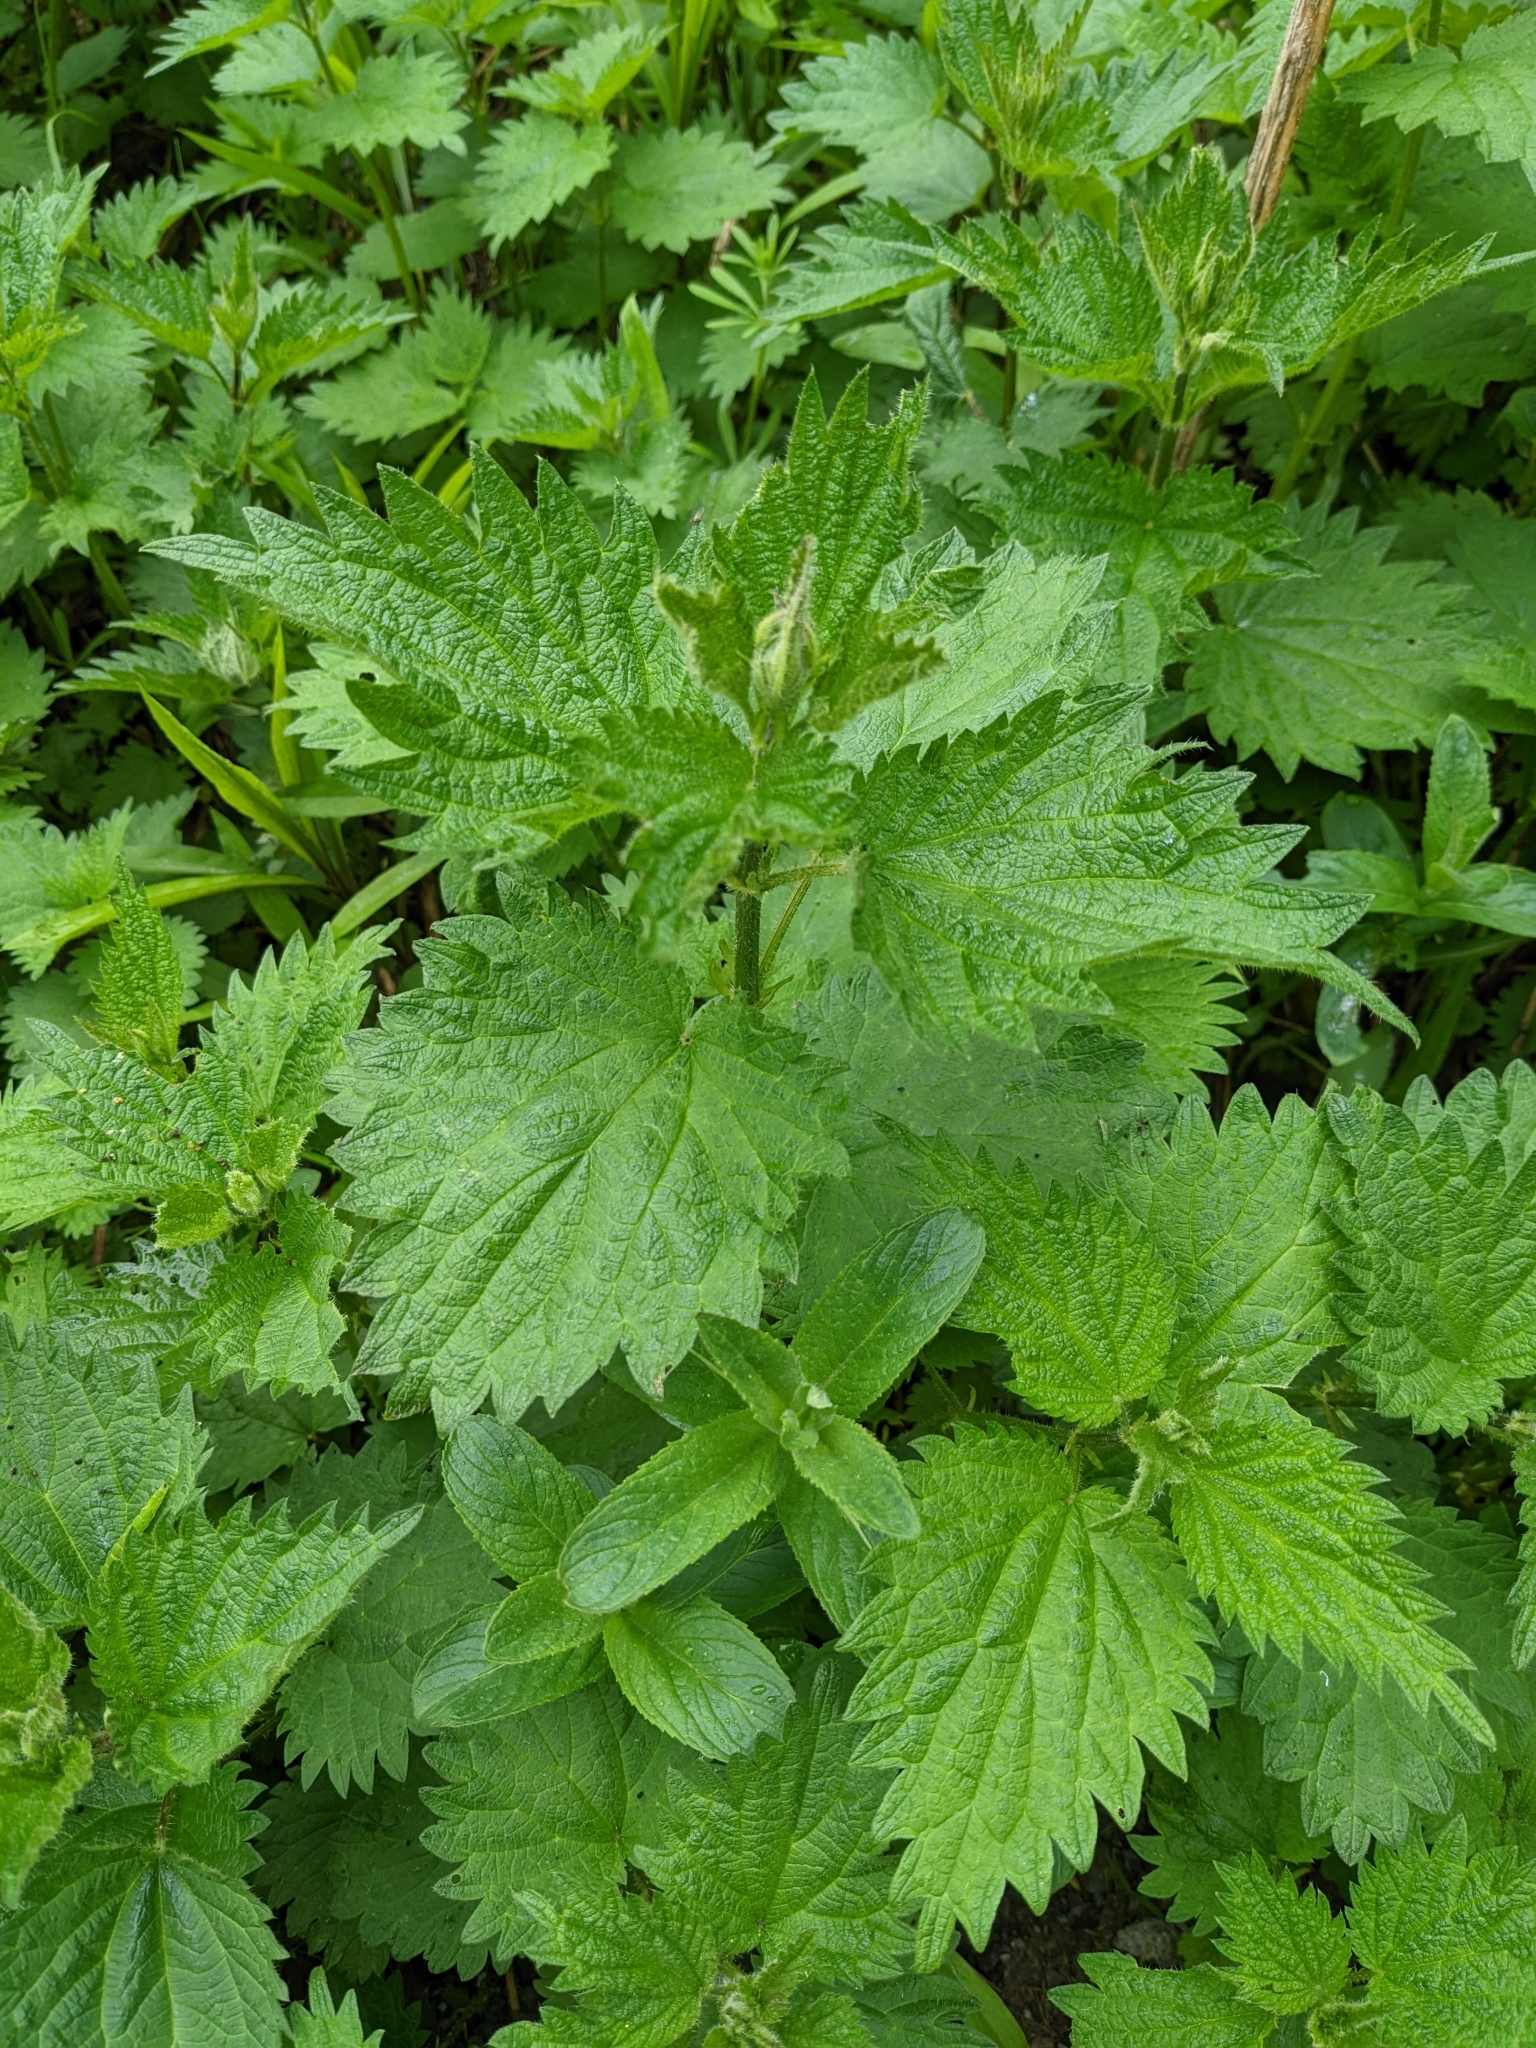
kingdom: Plantae
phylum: Tracheophyta
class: Magnoliopsida
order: Rosales
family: Urticaceae
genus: Urtica
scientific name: Urtica dioica
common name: Common nettle
